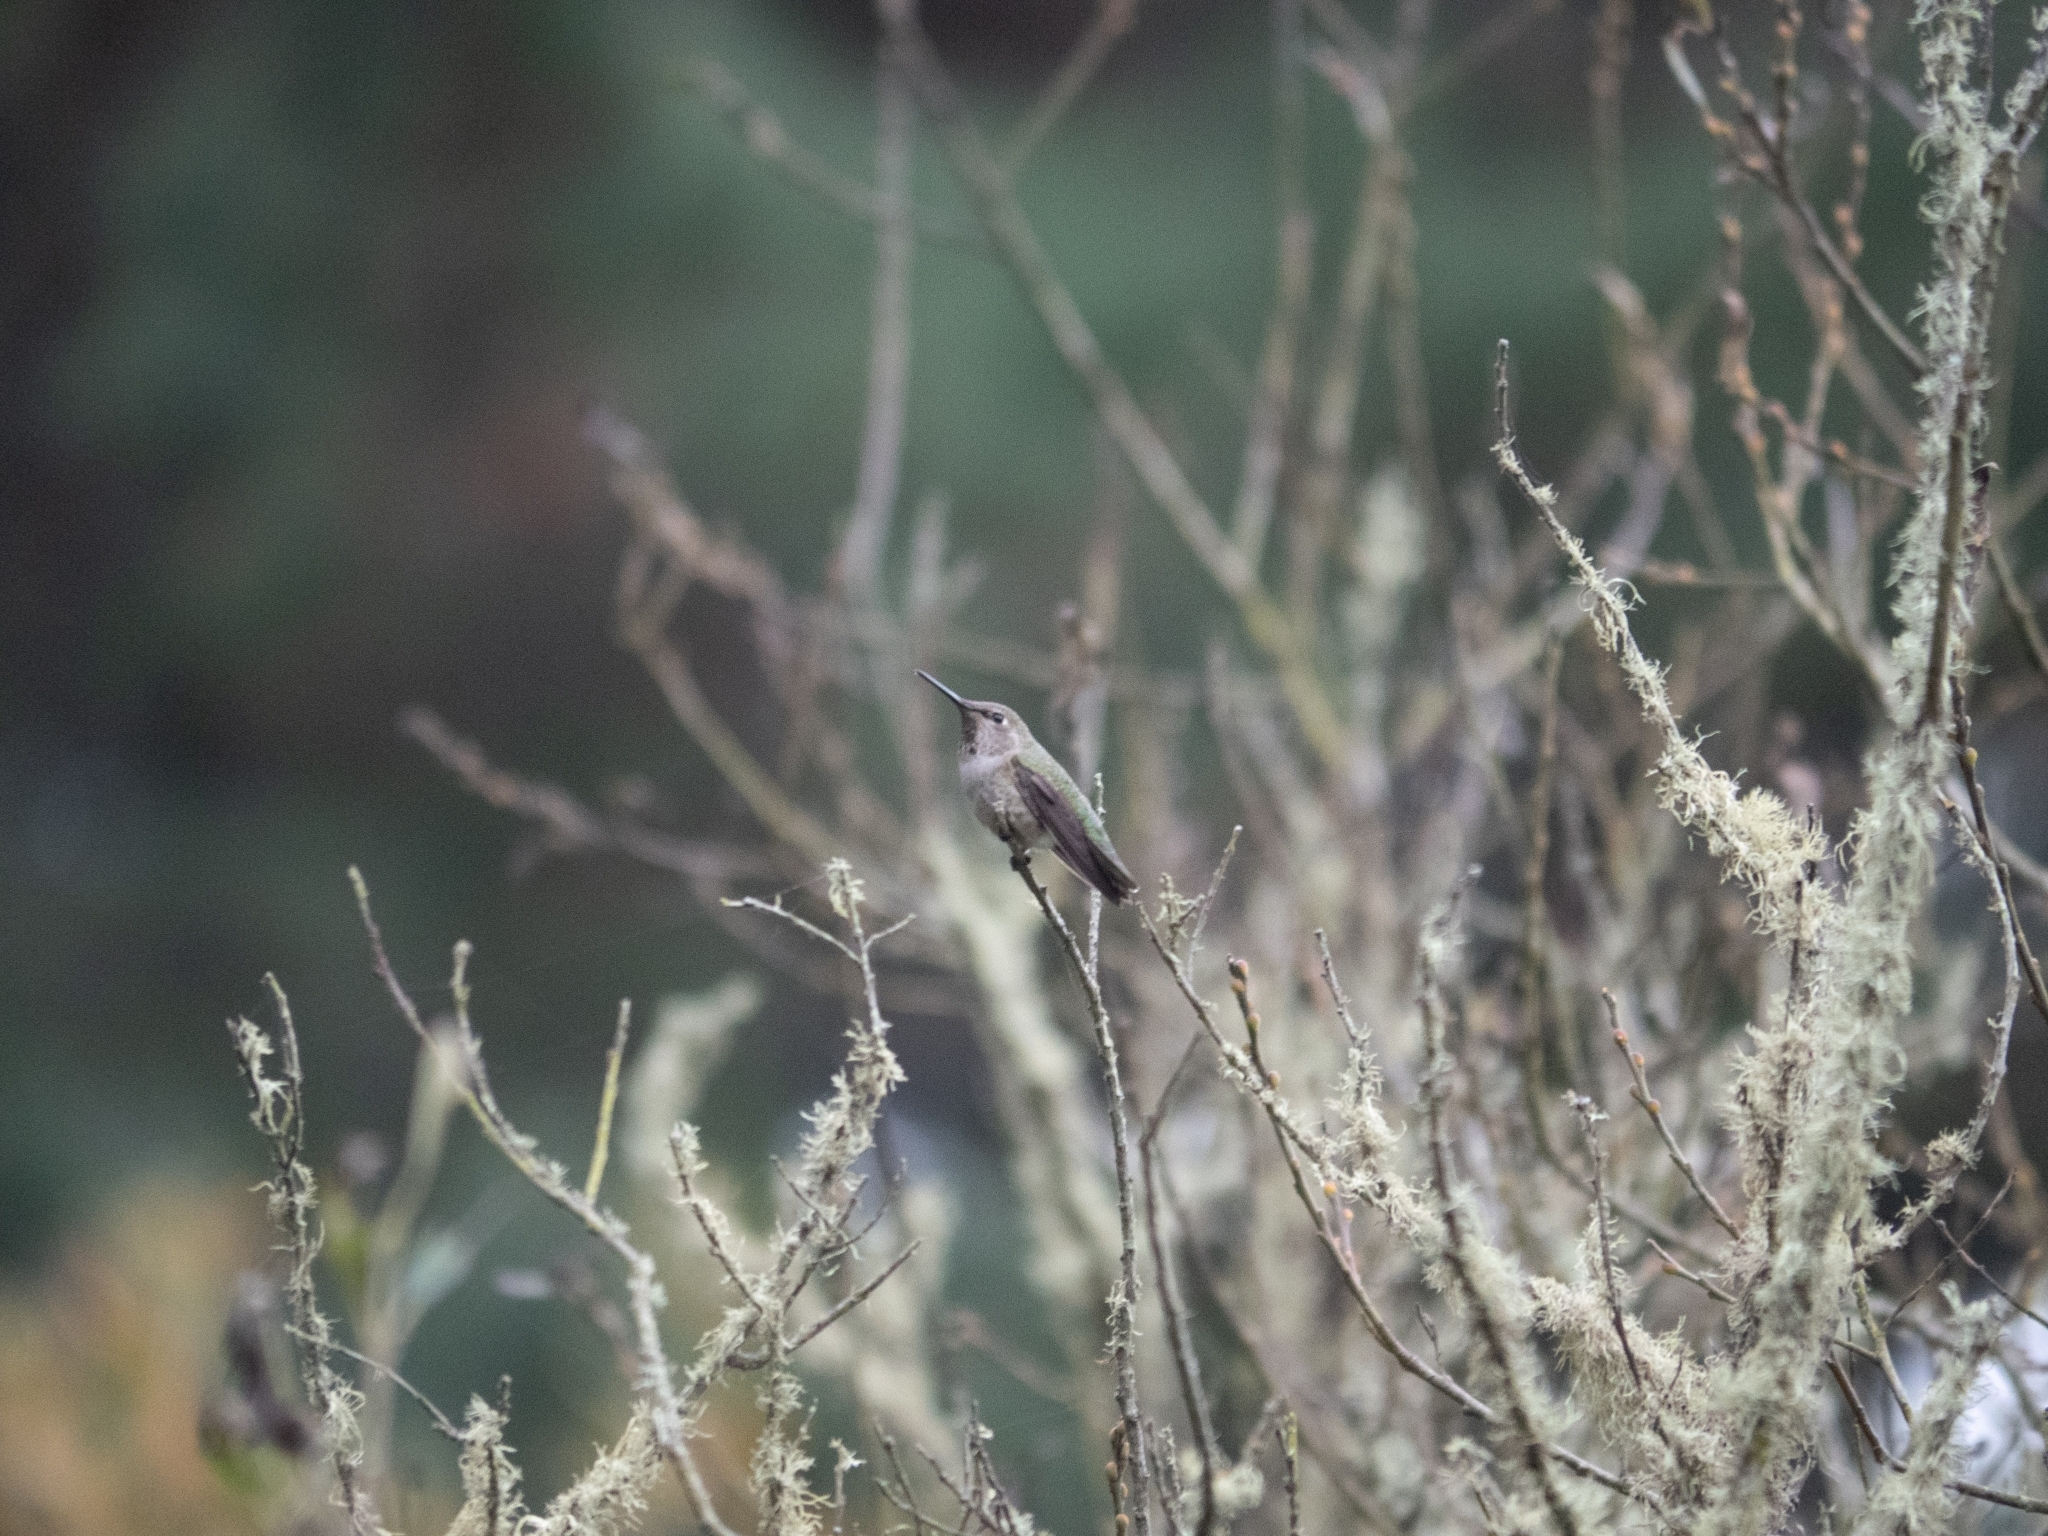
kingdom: Animalia
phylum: Chordata
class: Aves
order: Apodiformes
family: Trochilidae
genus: Calypte
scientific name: Calypte anna
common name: Anna's hummingbird
